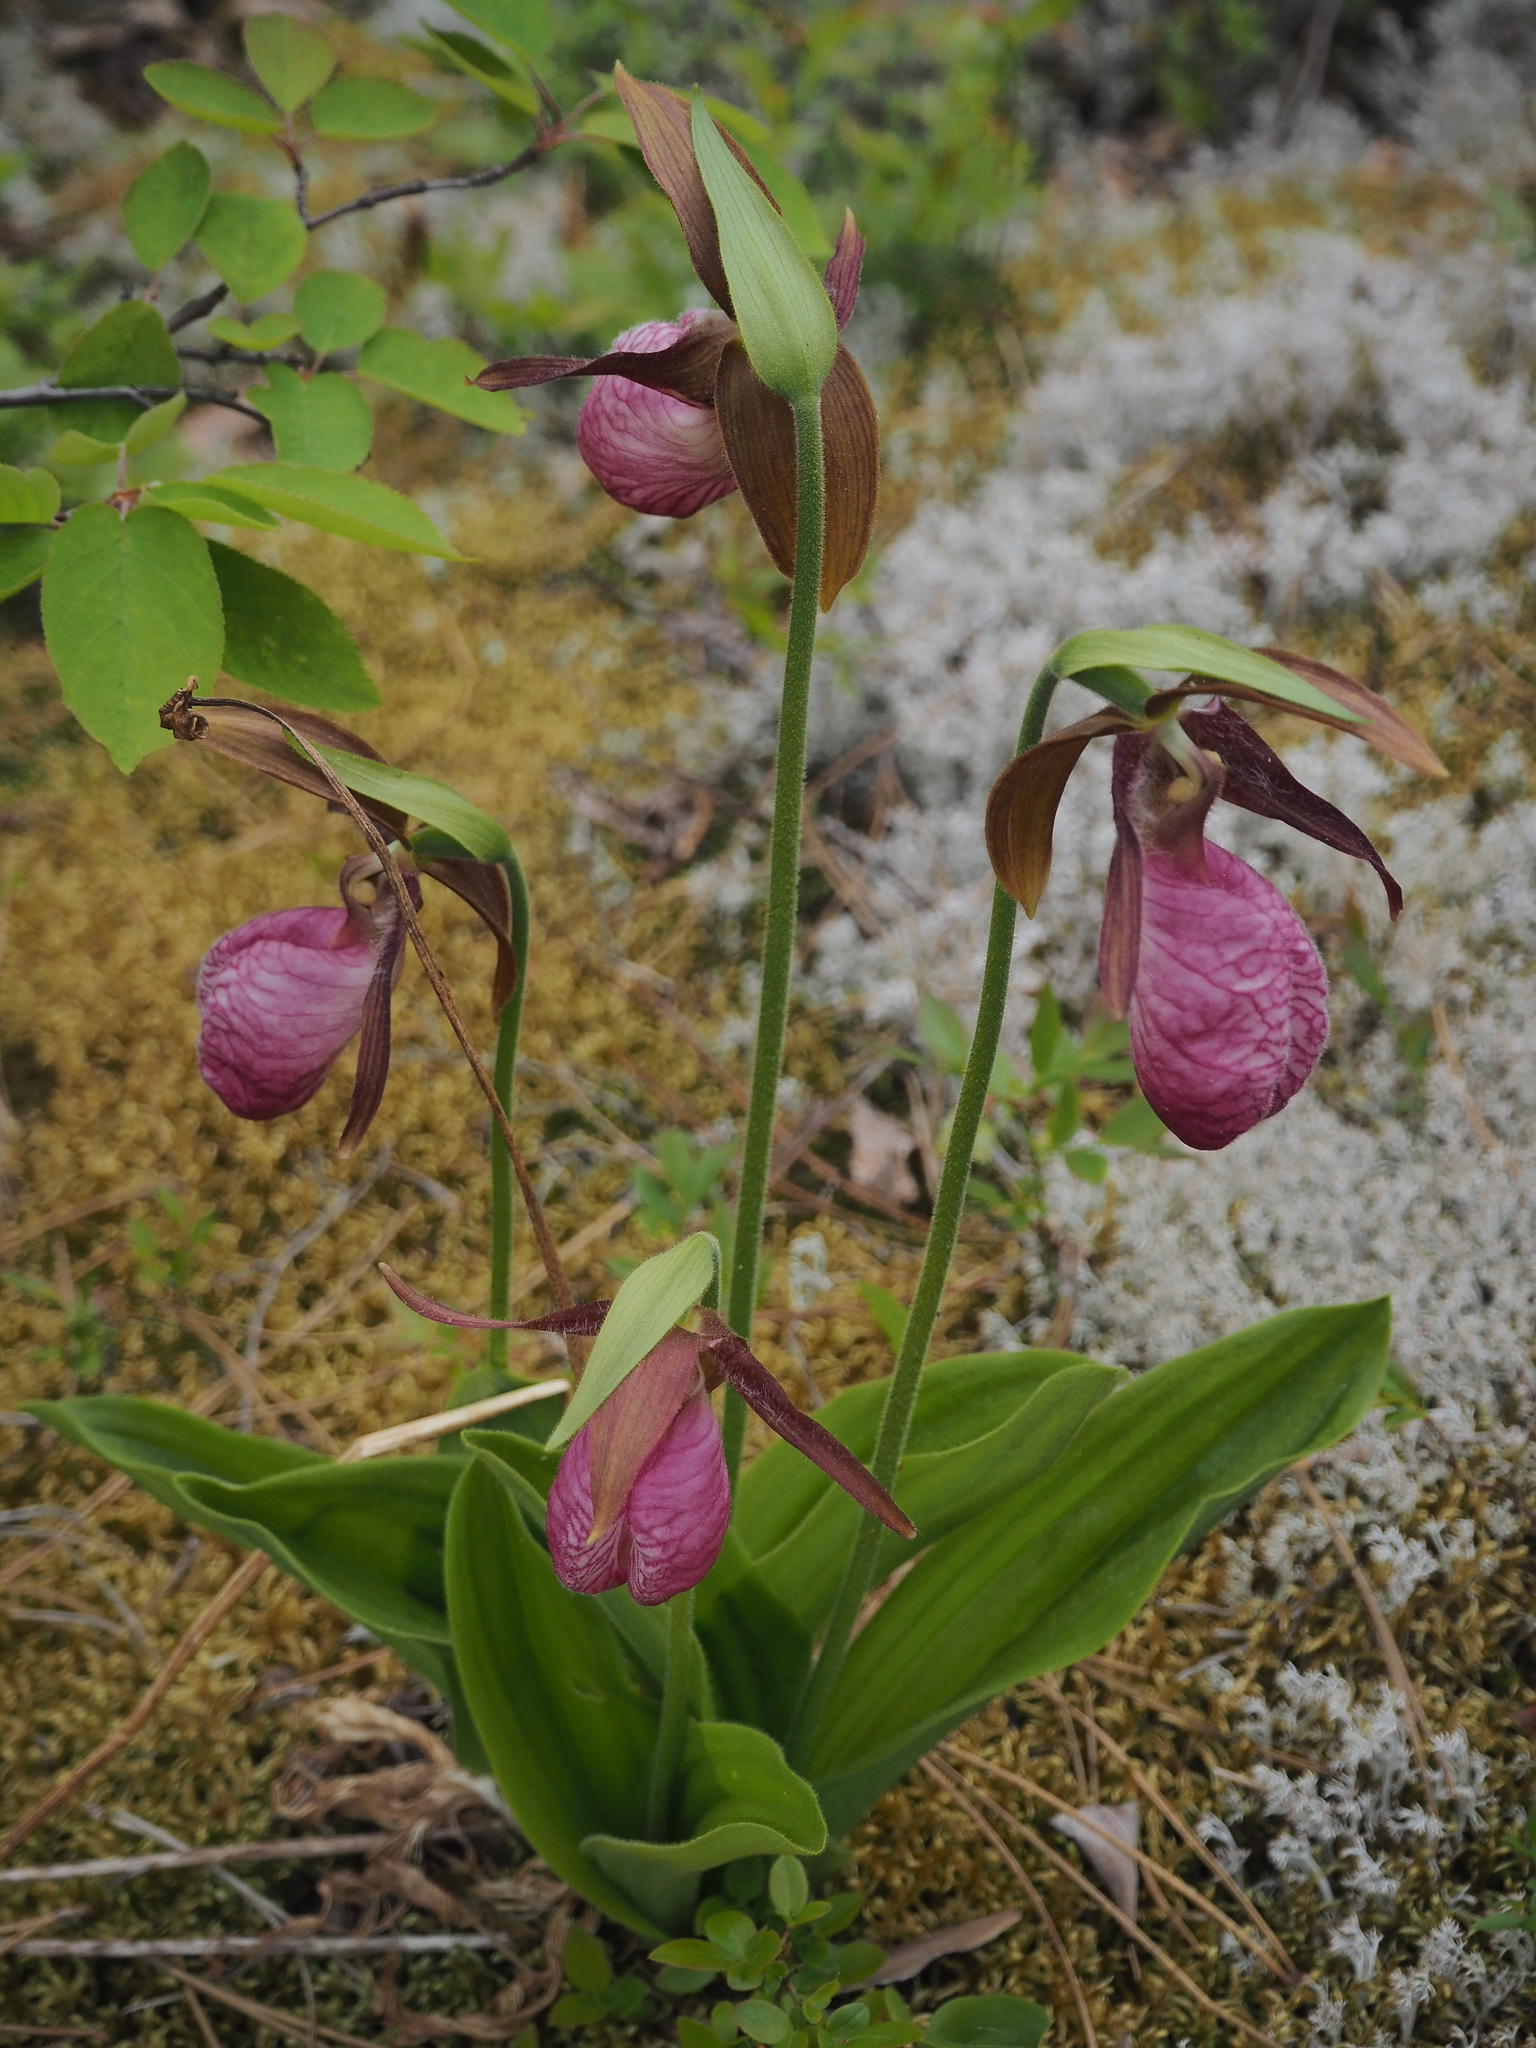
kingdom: Plantae
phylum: Tracheophyta
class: Liliopsida
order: Asparagales
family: Orchidaceae
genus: Cypripedium
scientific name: Cypripedium acaule
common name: Pink lady's-slipper
